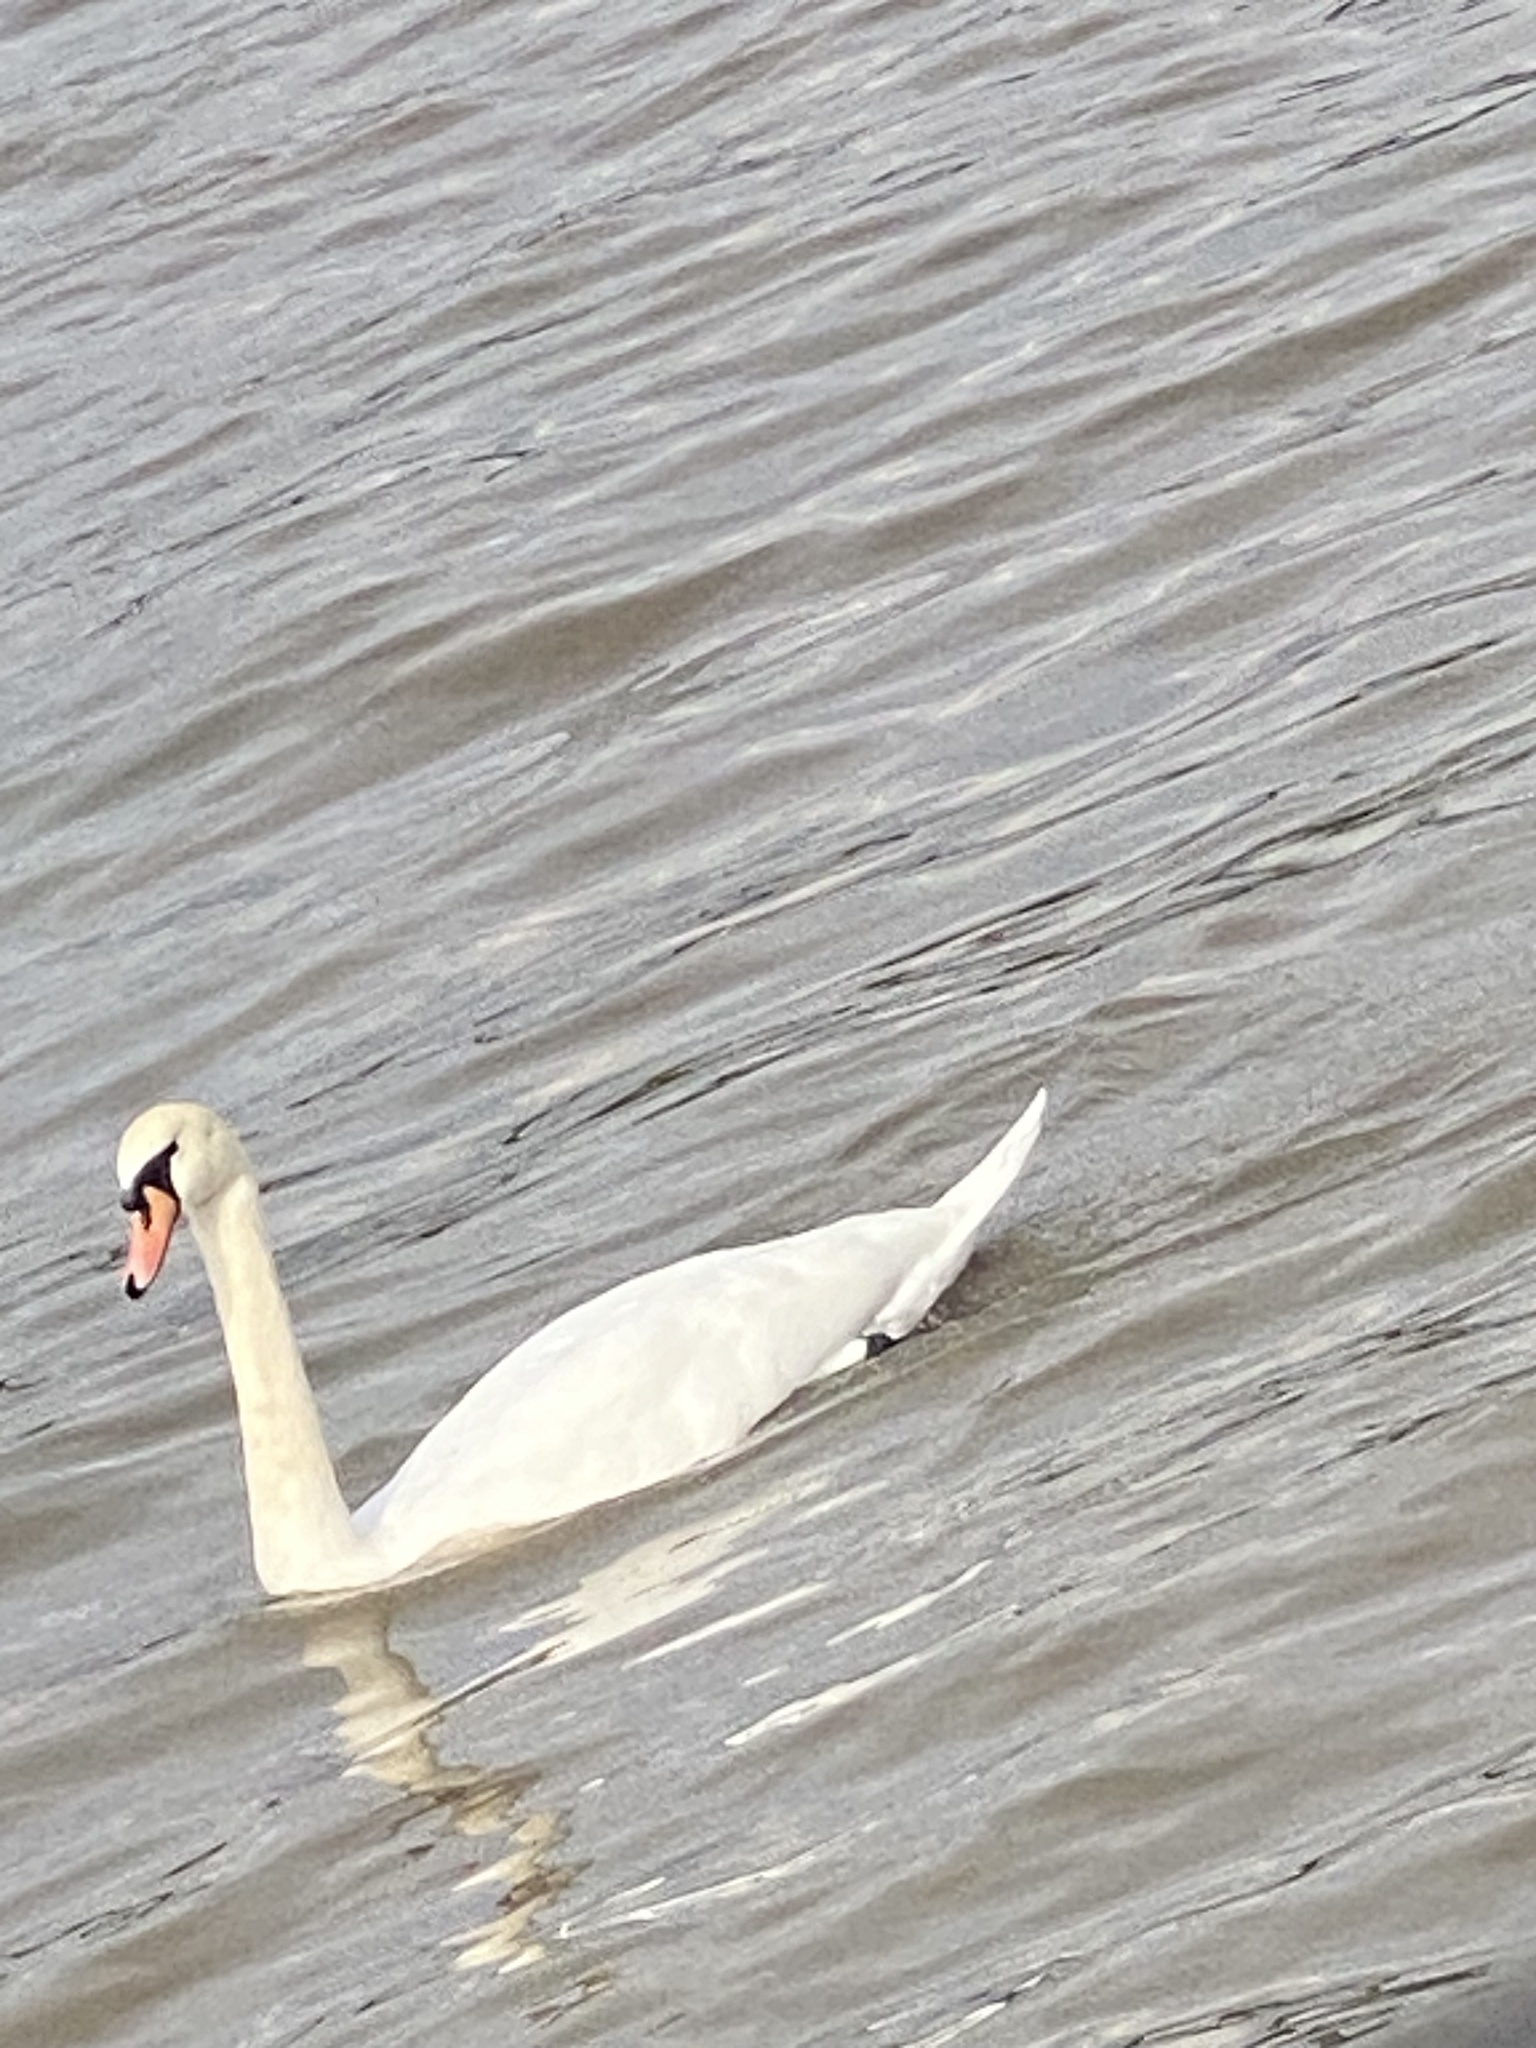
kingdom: Animalia
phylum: Chordata
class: Aves
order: Anseriformes
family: Anatidae
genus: Cygnus
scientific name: Cygnus olor
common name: Mute swan
